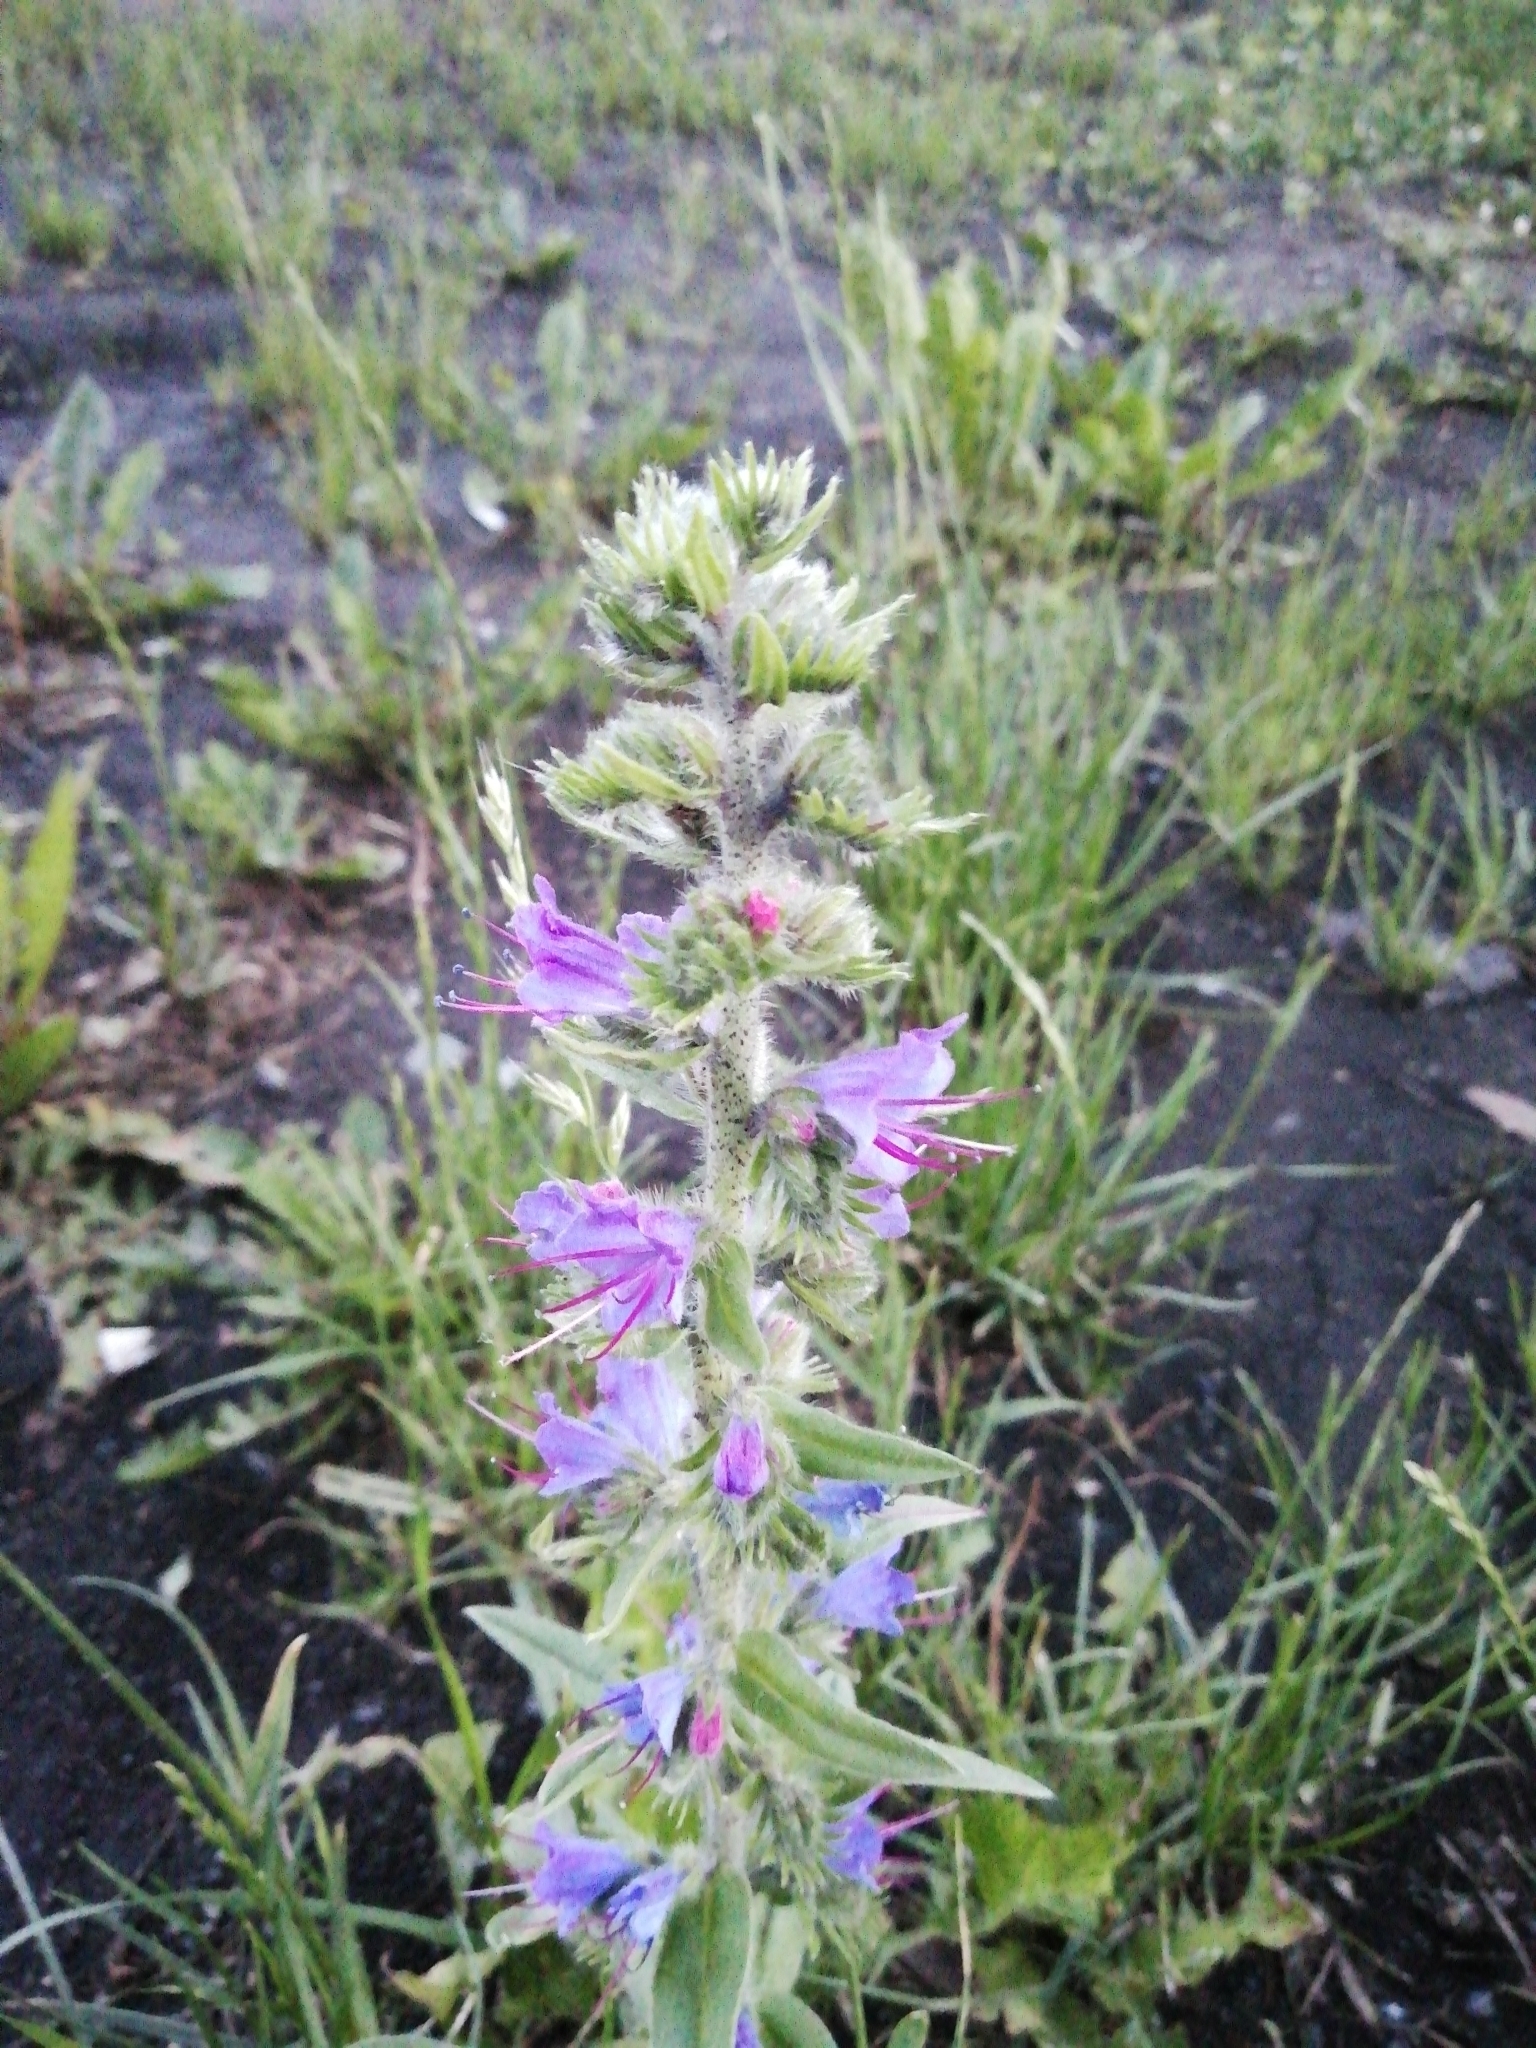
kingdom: Plantae
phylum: Tracheophyta
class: Magnoliopsida
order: Boraginales
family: Boraginaceae
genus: Echium
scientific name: Echium vulgare
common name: Common viper's bugloss
